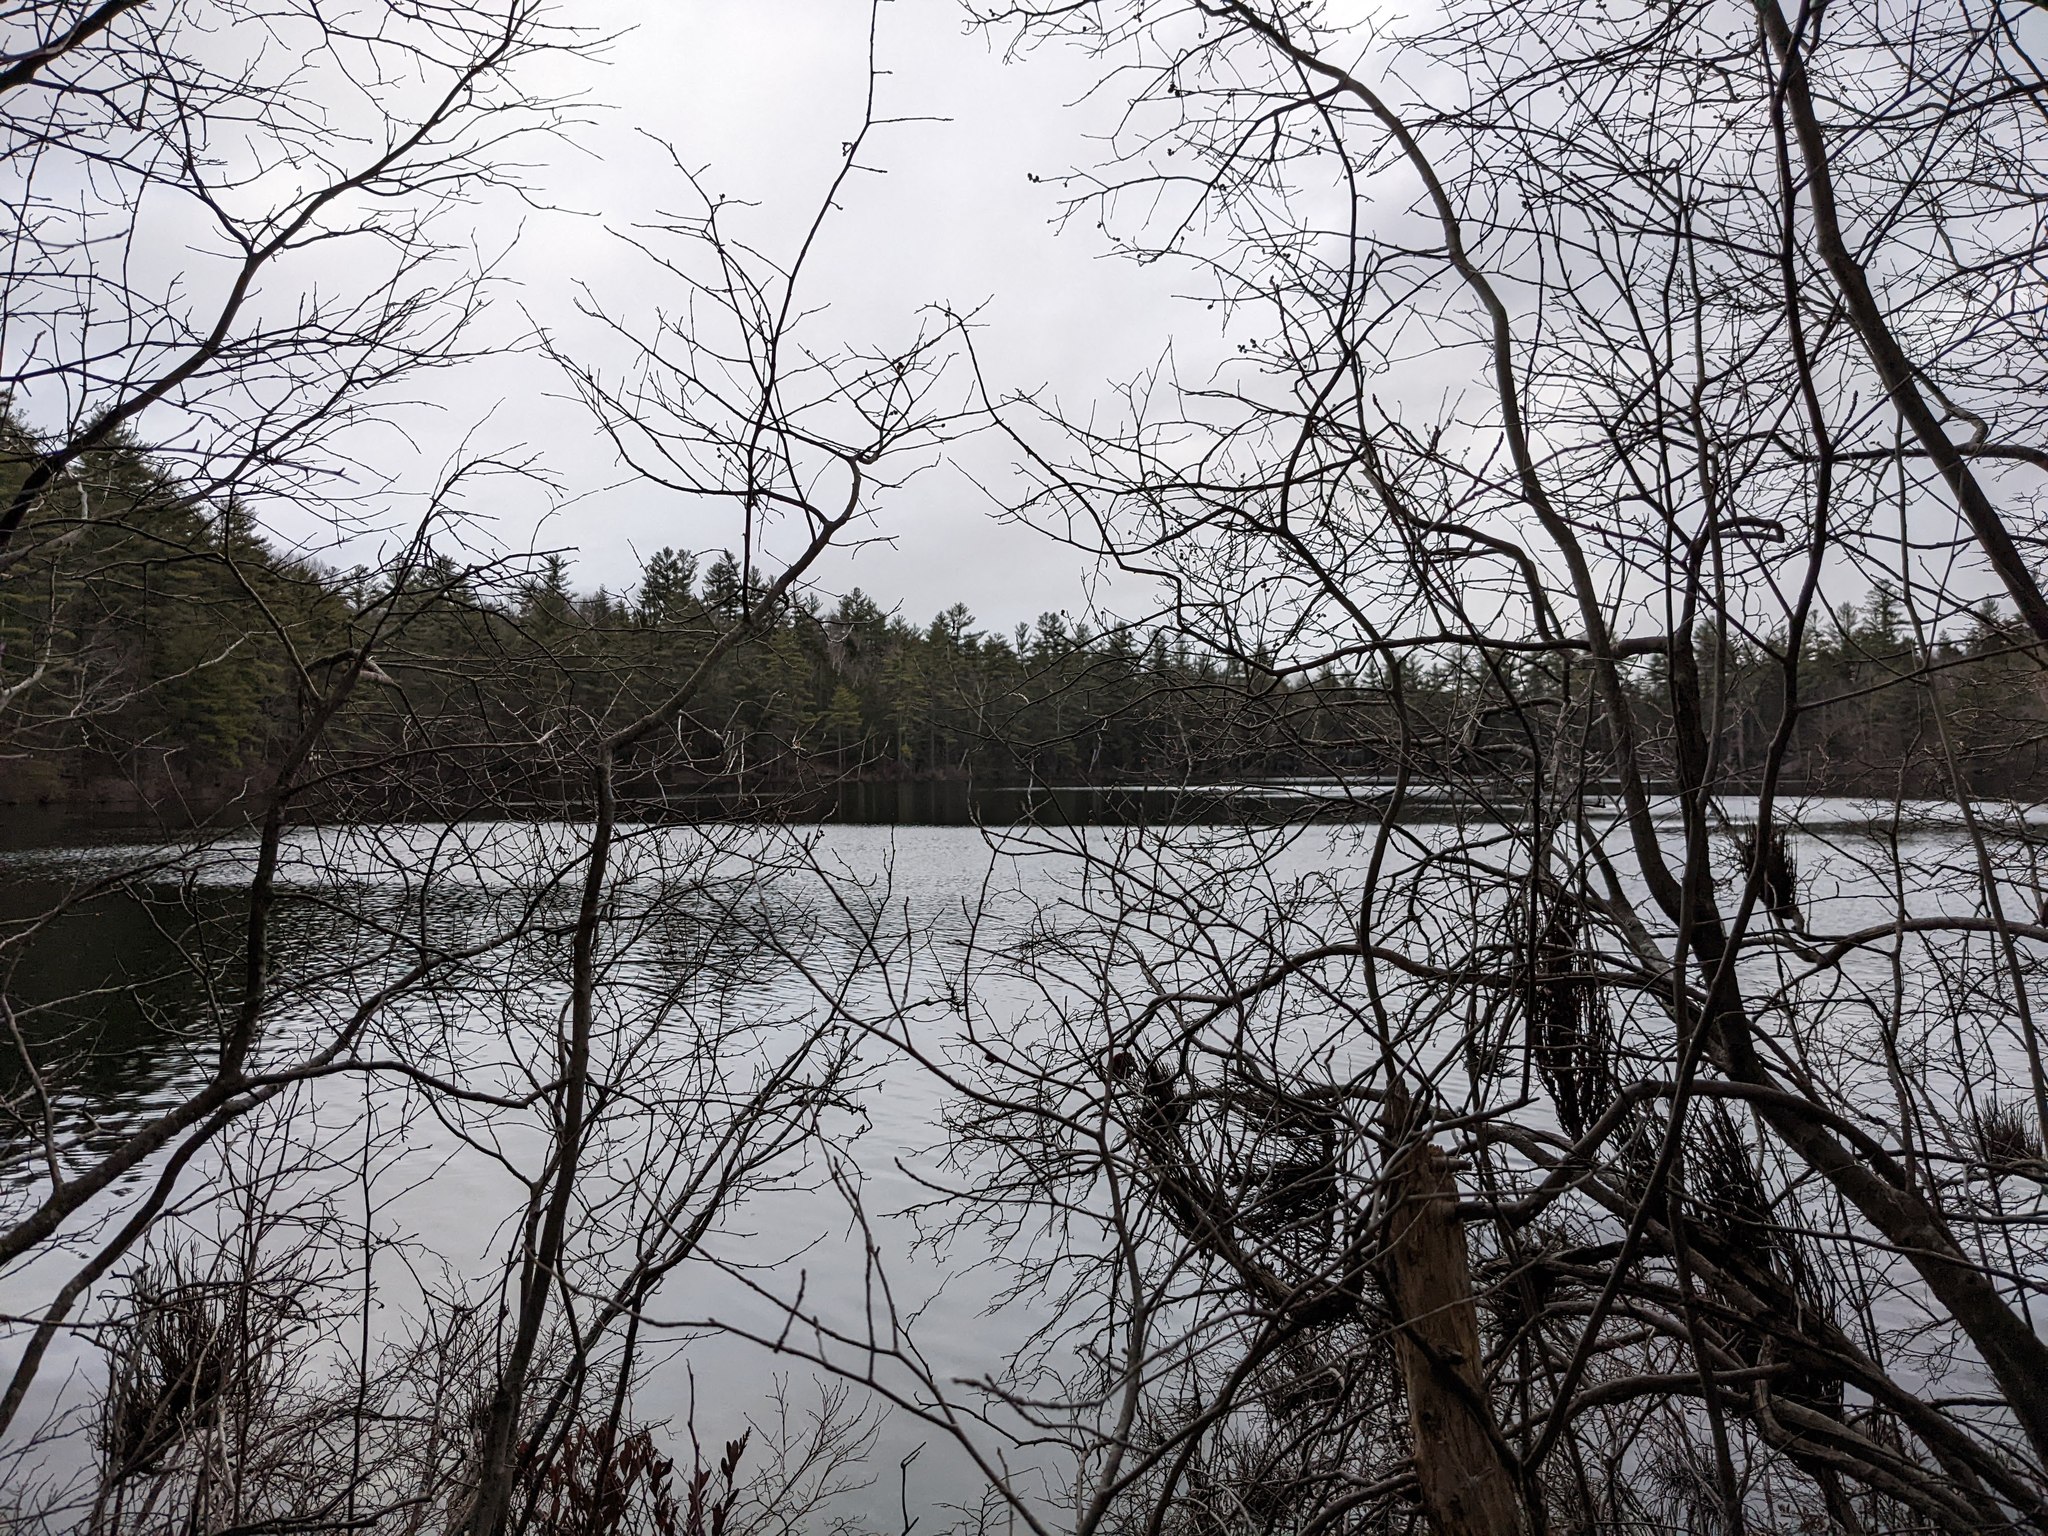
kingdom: Plantae
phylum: Tracheophyta
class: Pinopsida
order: Pinales
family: Pinaceae
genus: Pinus
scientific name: Pinus strobus
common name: Weymouth pine
